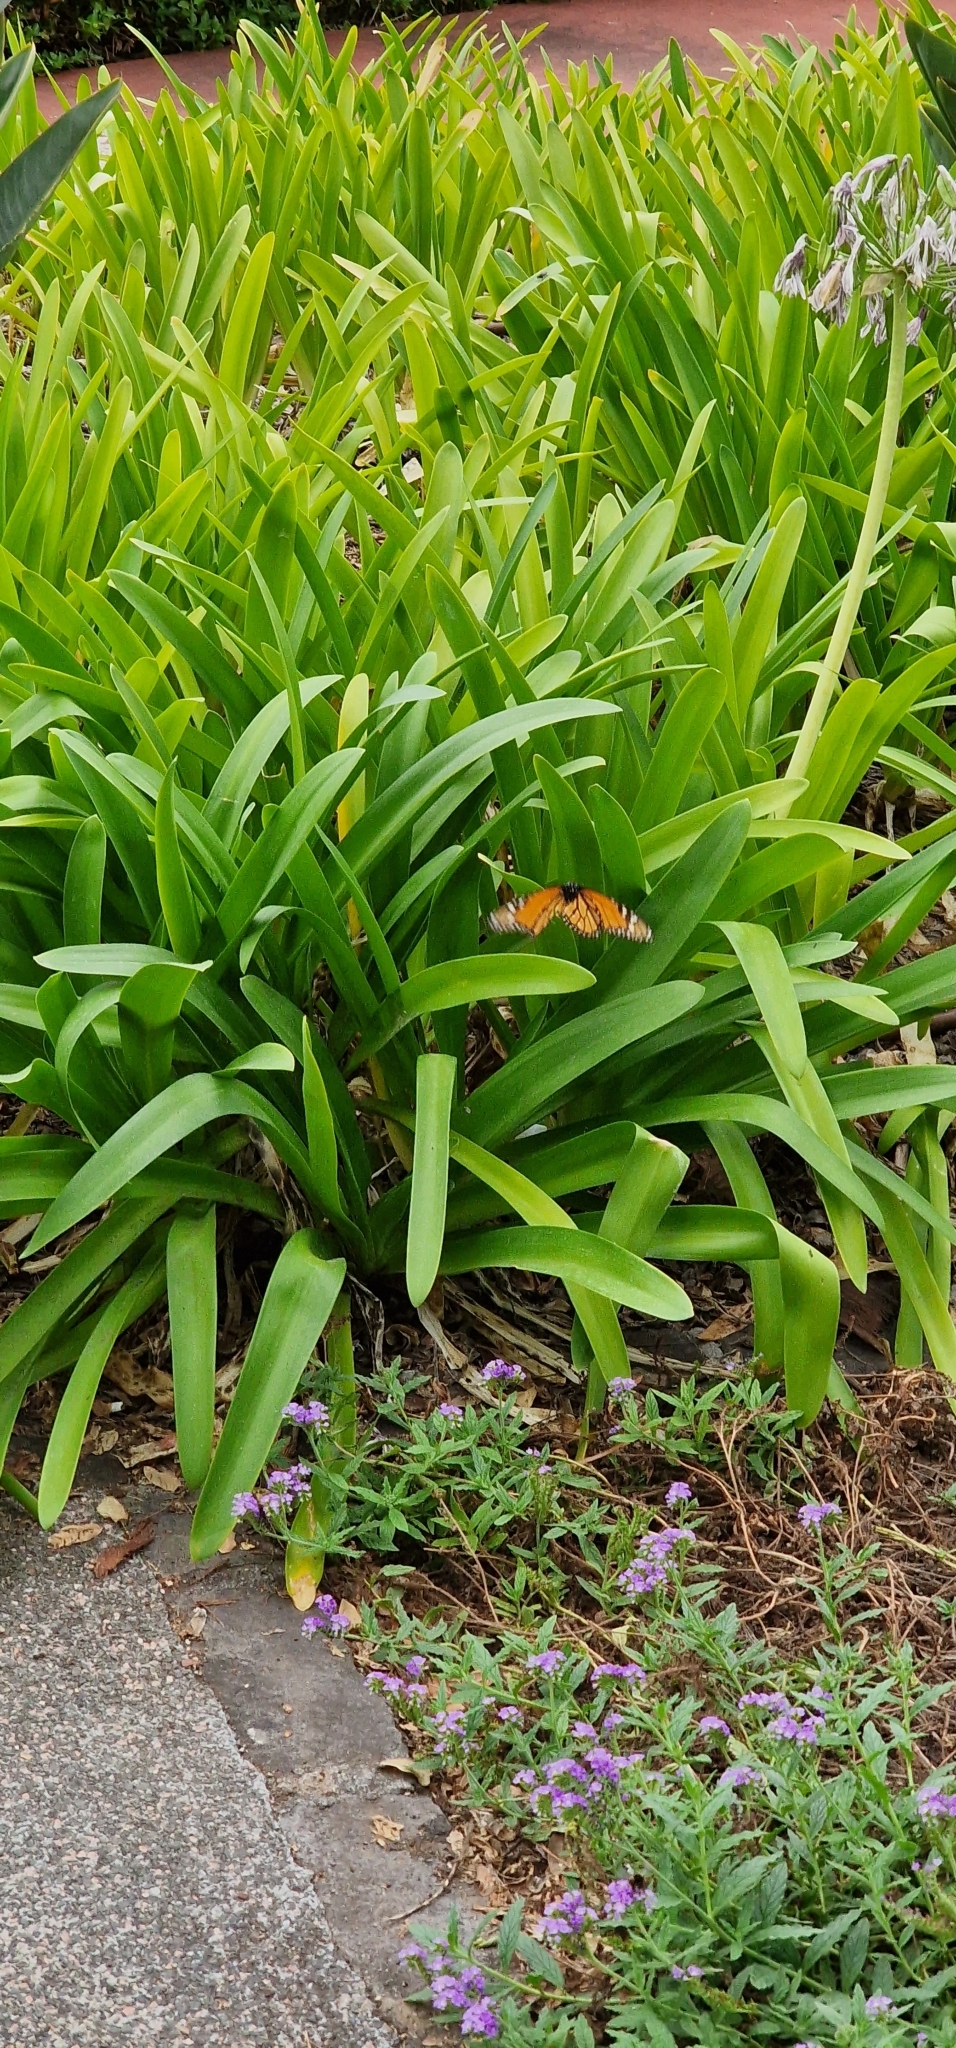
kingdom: Animalia
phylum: Arthropoda
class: Insecta
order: Lepidoptera
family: Nymphalidae
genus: Danaus
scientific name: Danaus plexippus
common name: Monarch
